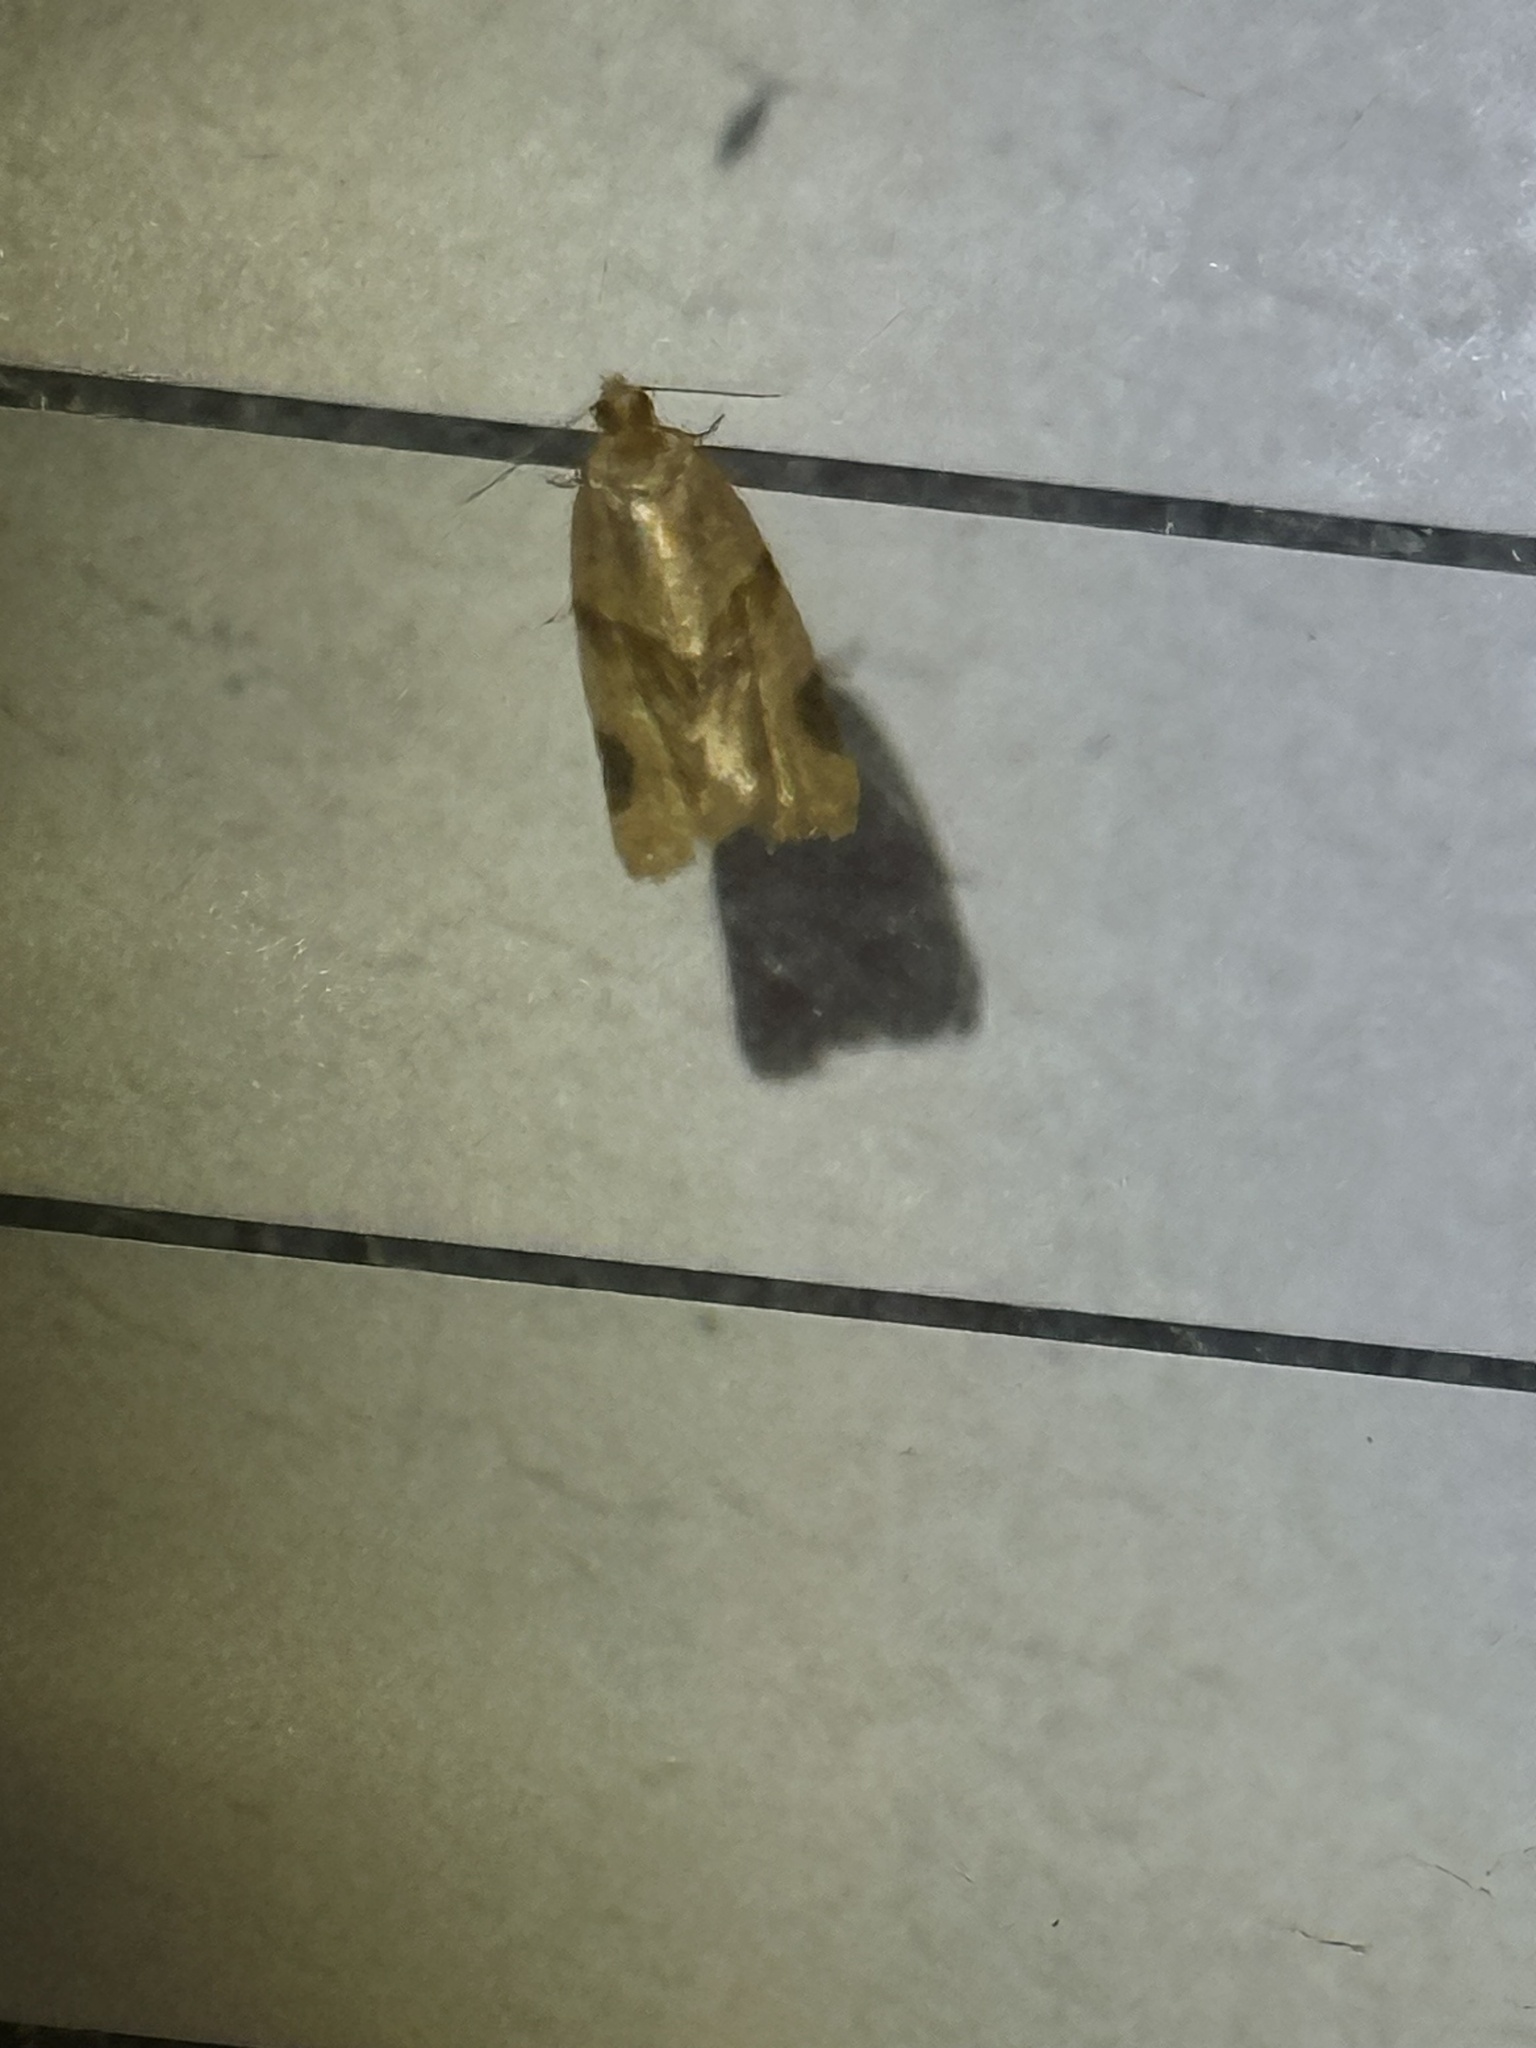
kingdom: Animalia
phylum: Arthropoda
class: Insecta
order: Lepidoptera
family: Tortricidae
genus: Clepsis
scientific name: Clepsis peritana
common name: Garden tortrix
